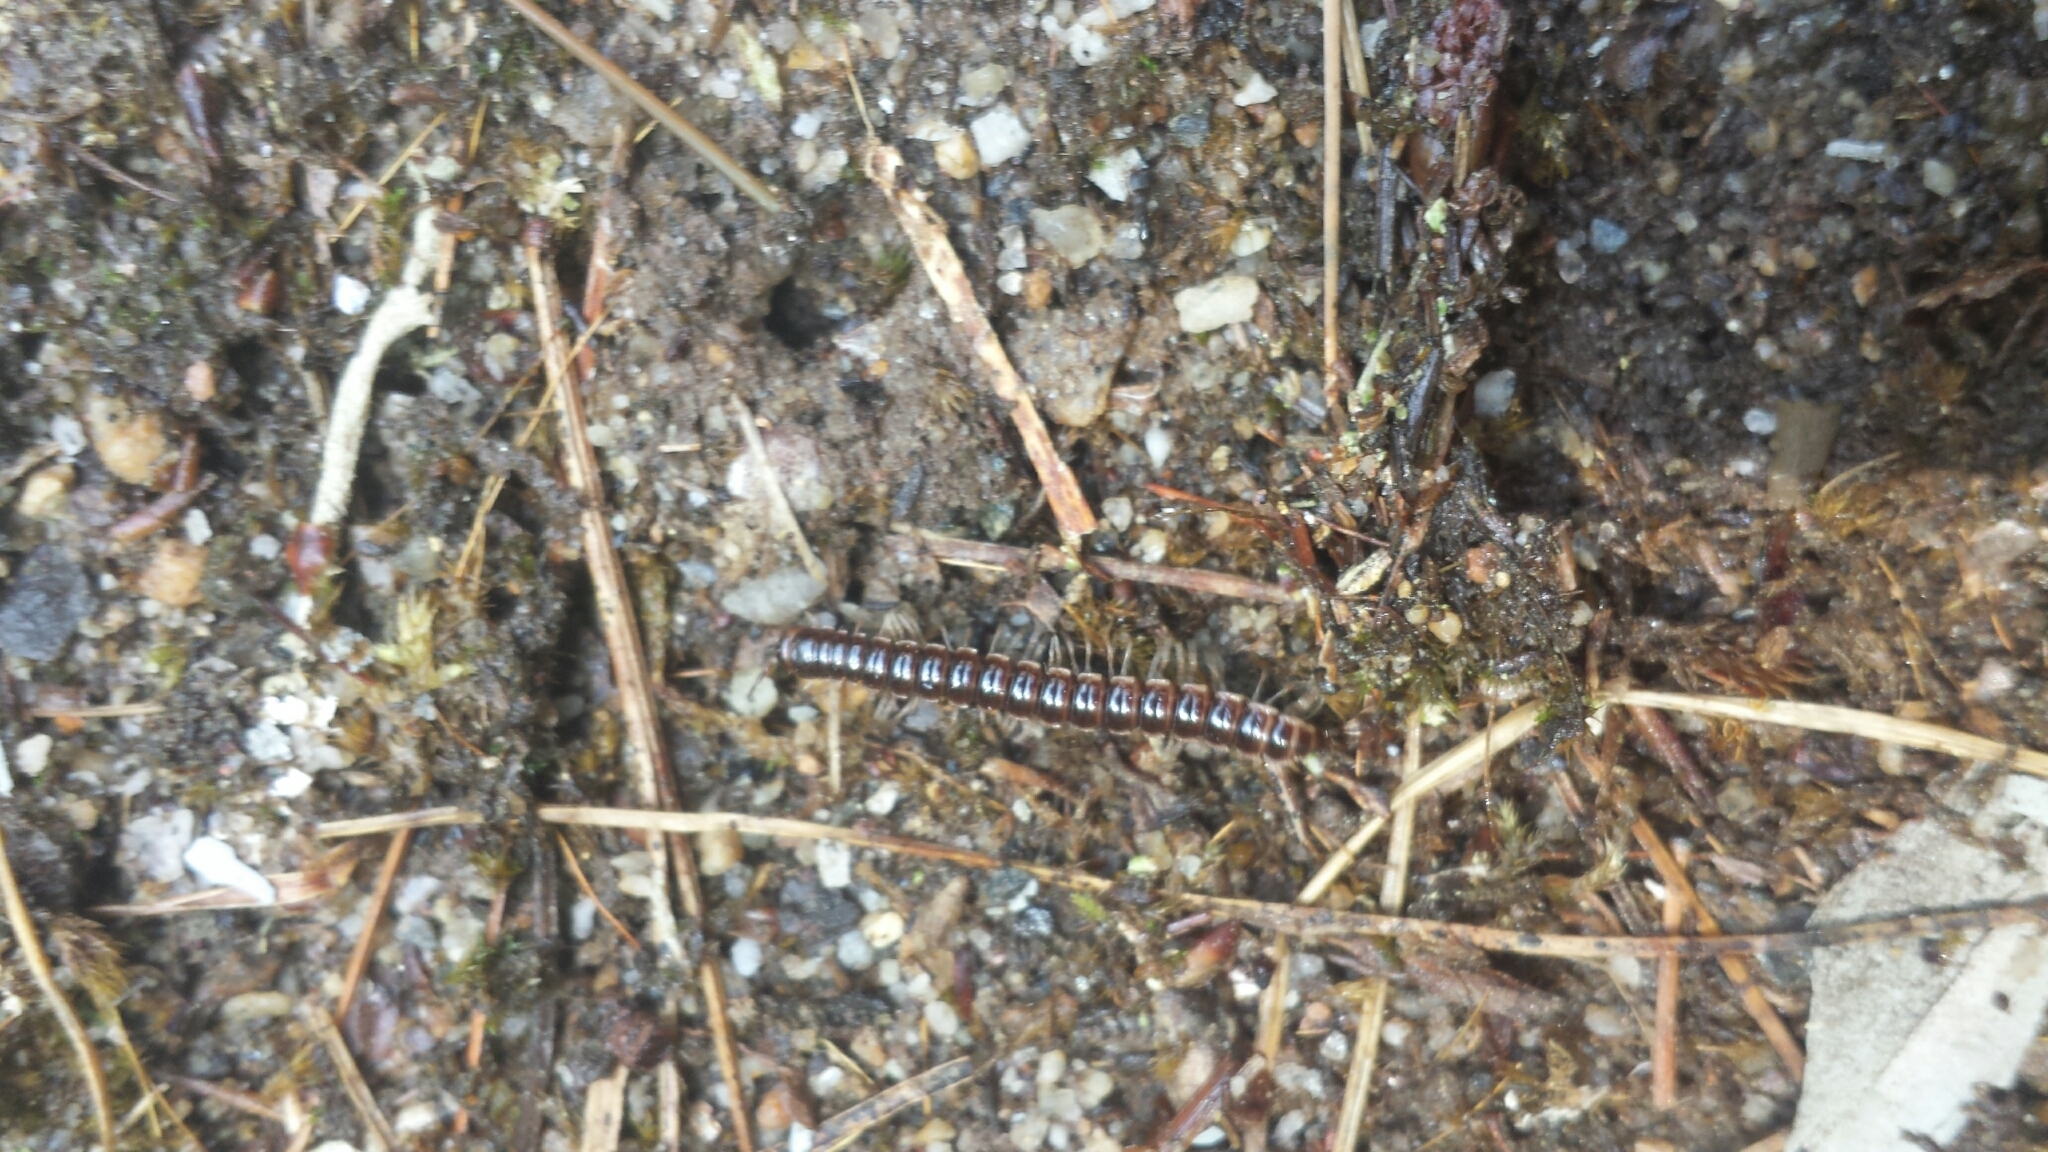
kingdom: Animalia
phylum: Arthropoda
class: Diplopoda
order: Polydesmida
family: Paradoxosomatidae
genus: Oxidus
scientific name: Oxidus gracilis
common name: Greenhouse millipede
